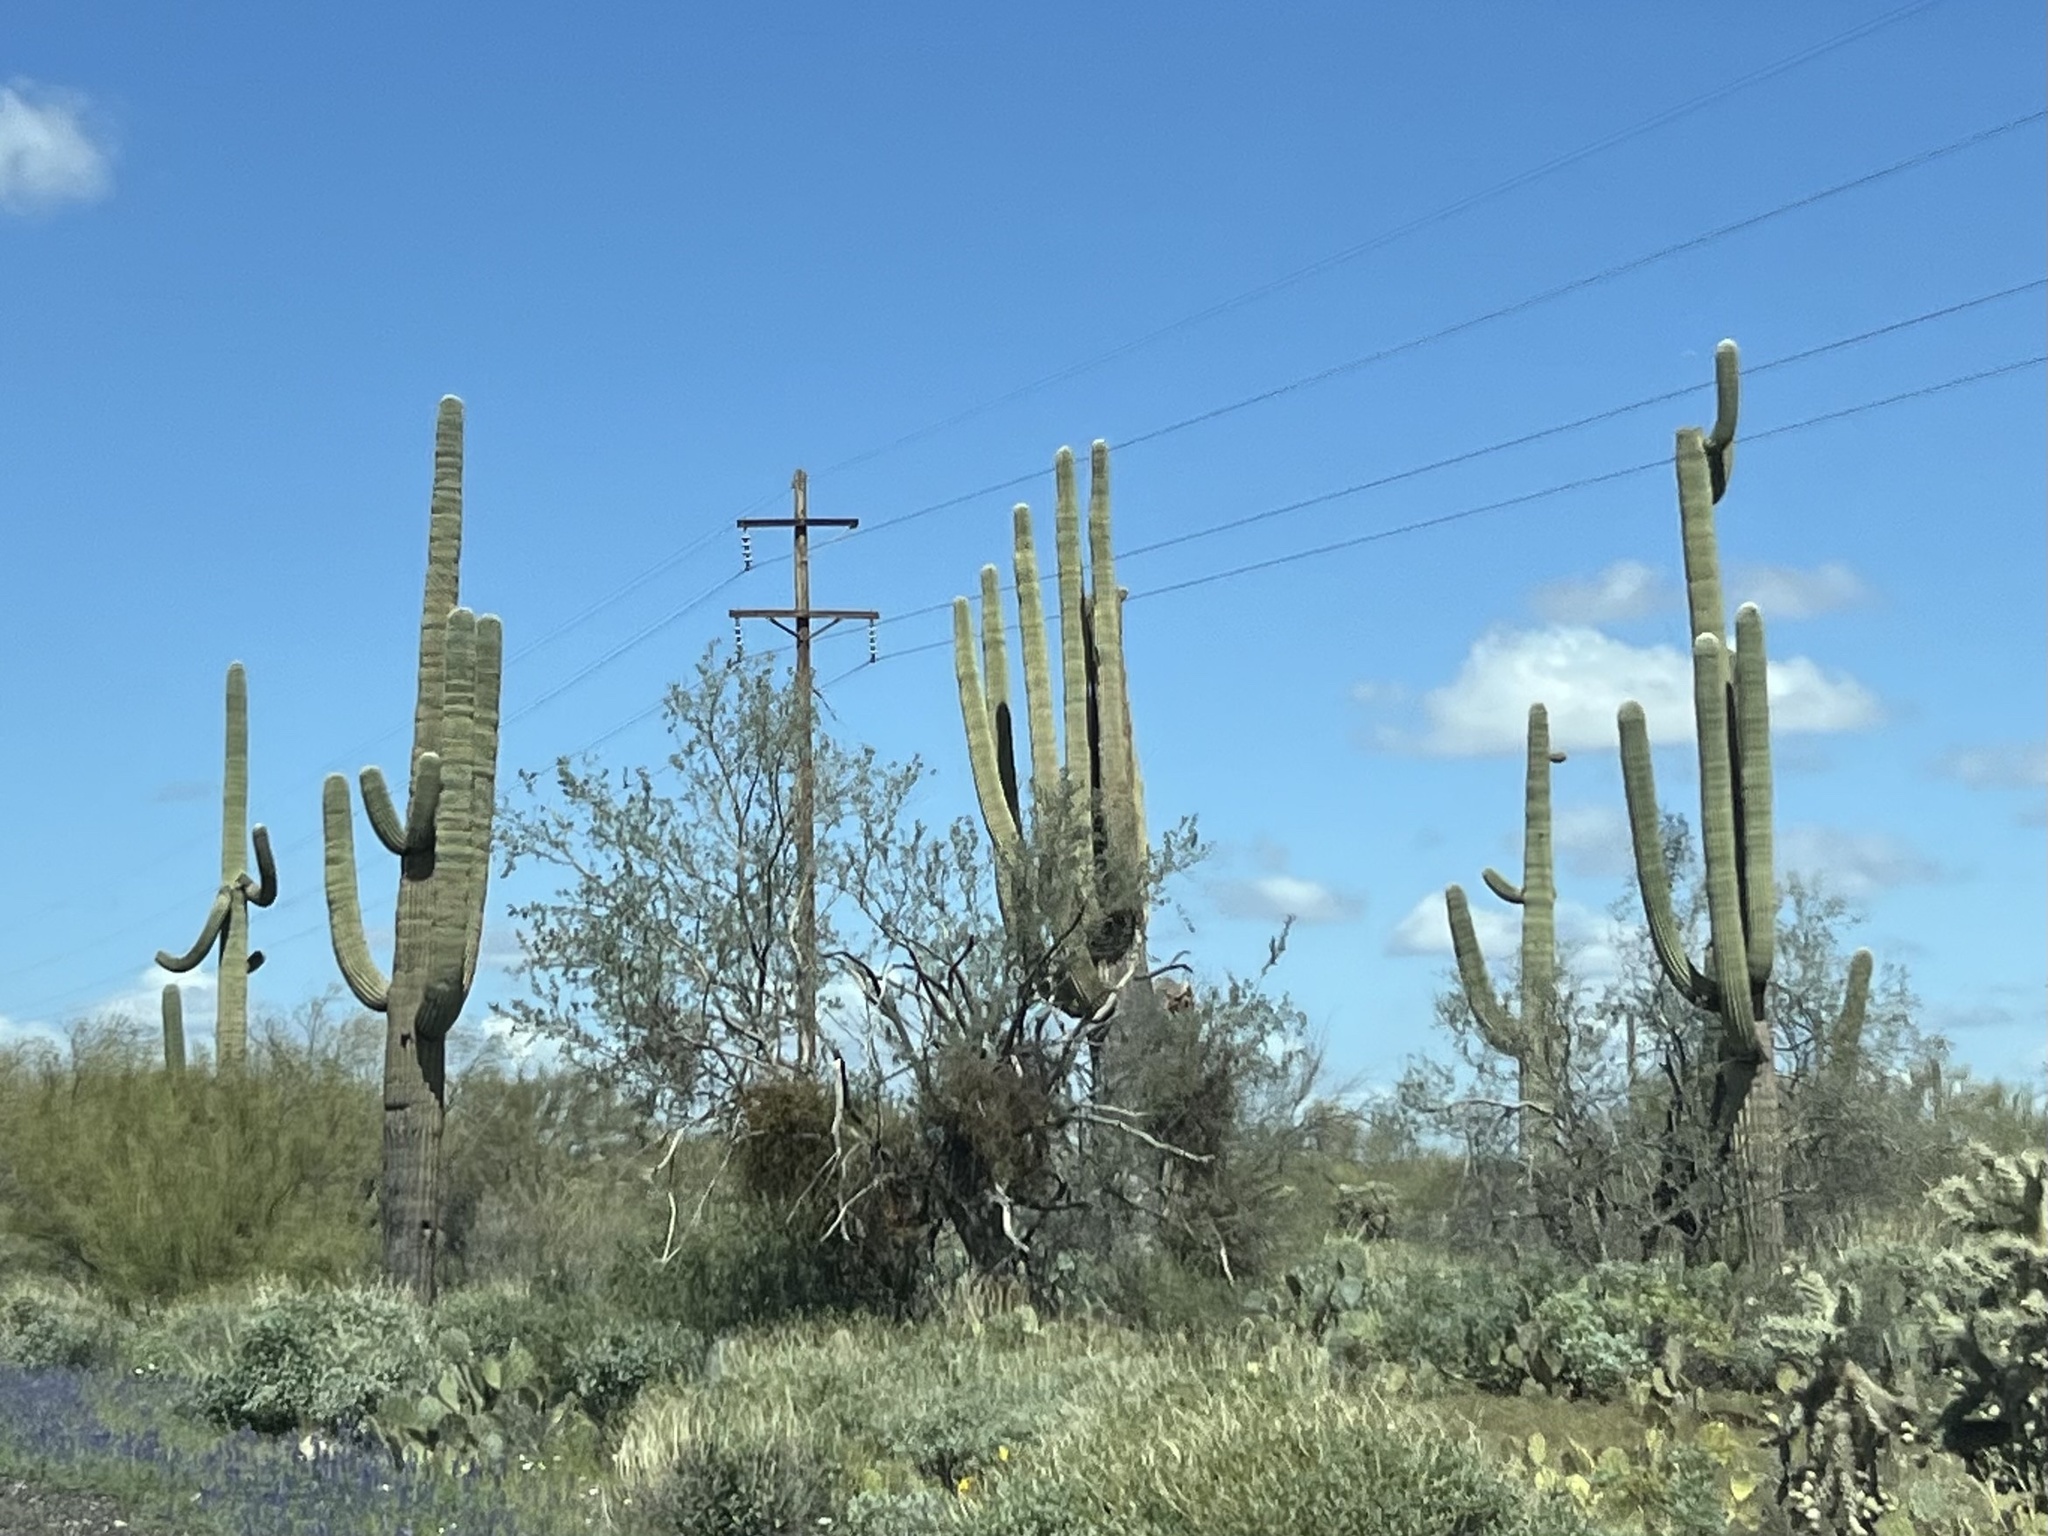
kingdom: Plantae
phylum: Tracheophyta
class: Magnoliopsida
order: Caryophyllales
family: Cactaceae
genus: Carnegiea
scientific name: Carnegiea gigantea
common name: Saguaro
